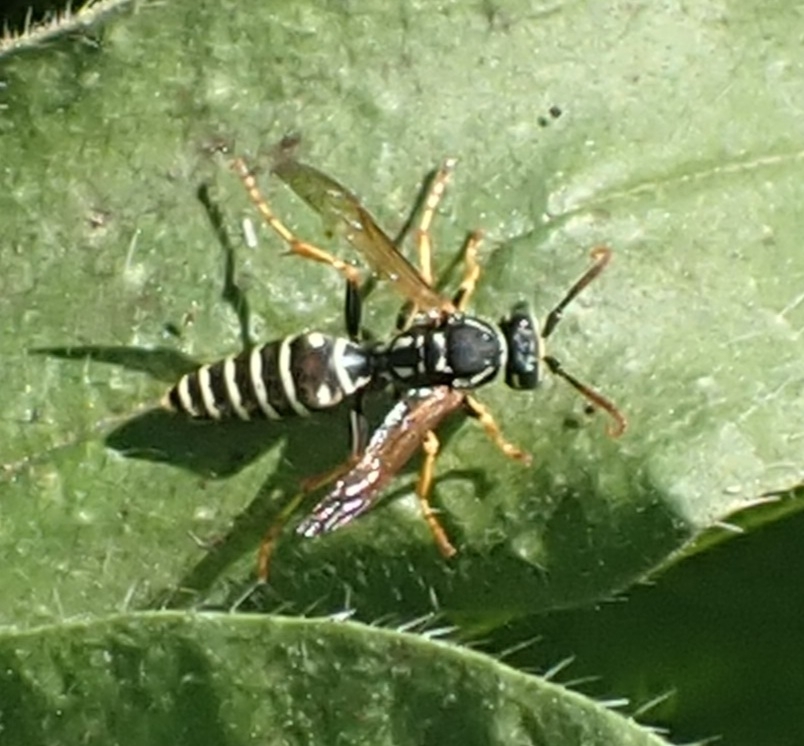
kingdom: Animalia
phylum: Arthropoda
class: Insecta
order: Hymenoptera
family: Eumenidae
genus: Polistes
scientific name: Polistes nimpha
